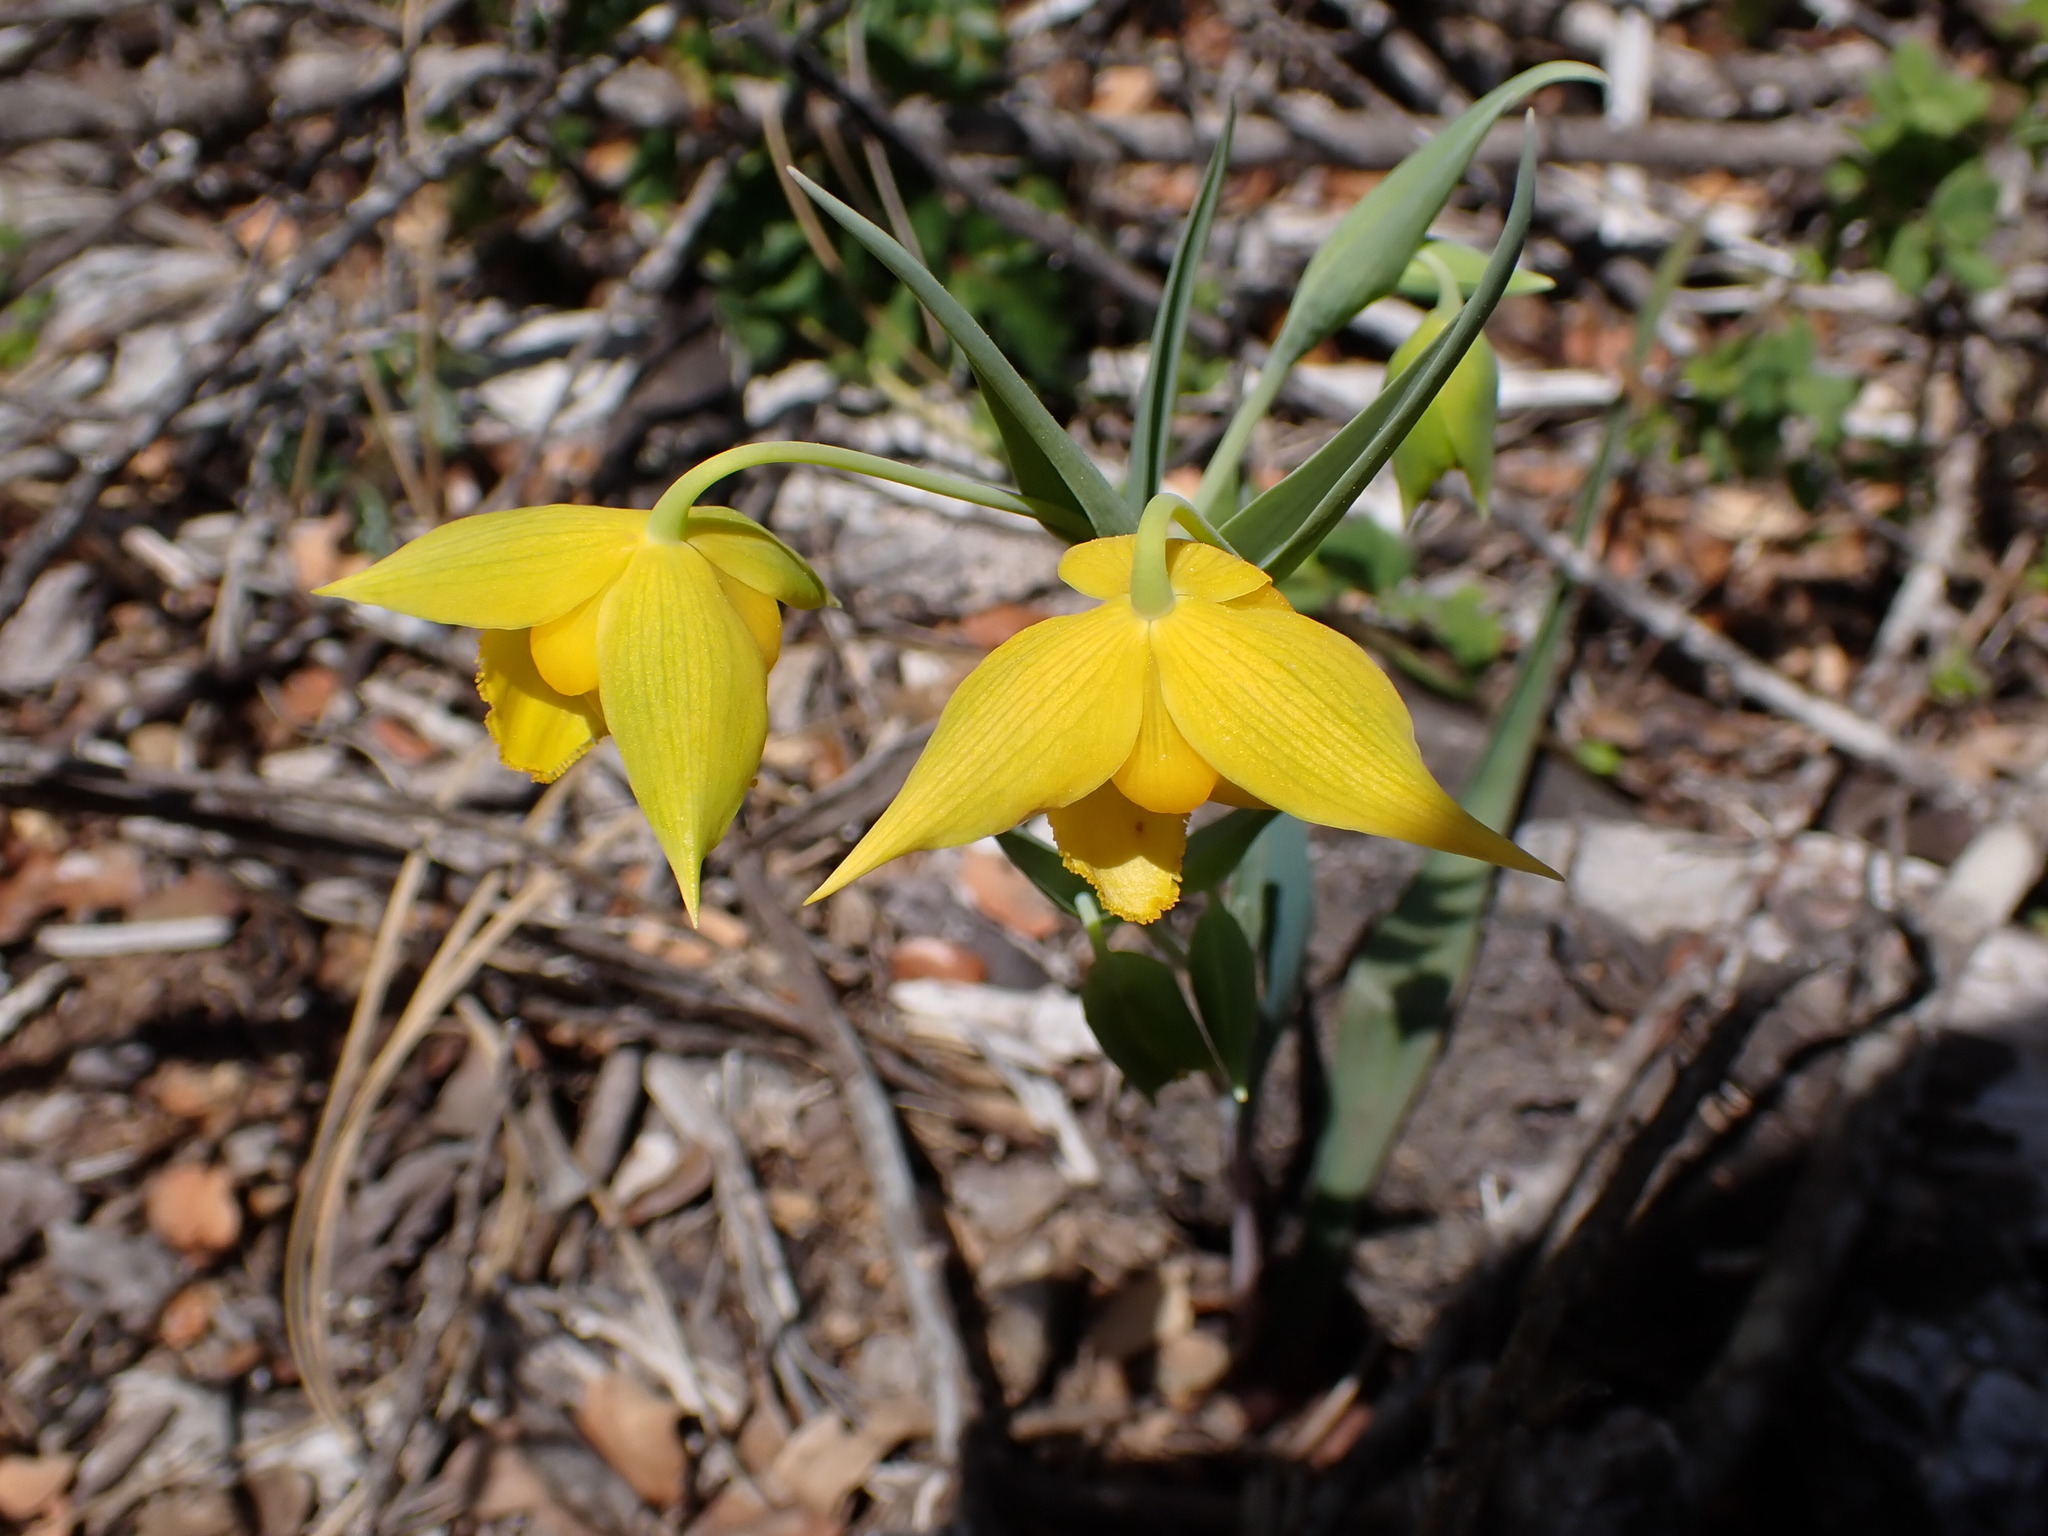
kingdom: Plantae
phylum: Tracheophyta
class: Liliopsida
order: Liliales
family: Liliaceae
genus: Calochortus
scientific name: Calochortus amabilis
